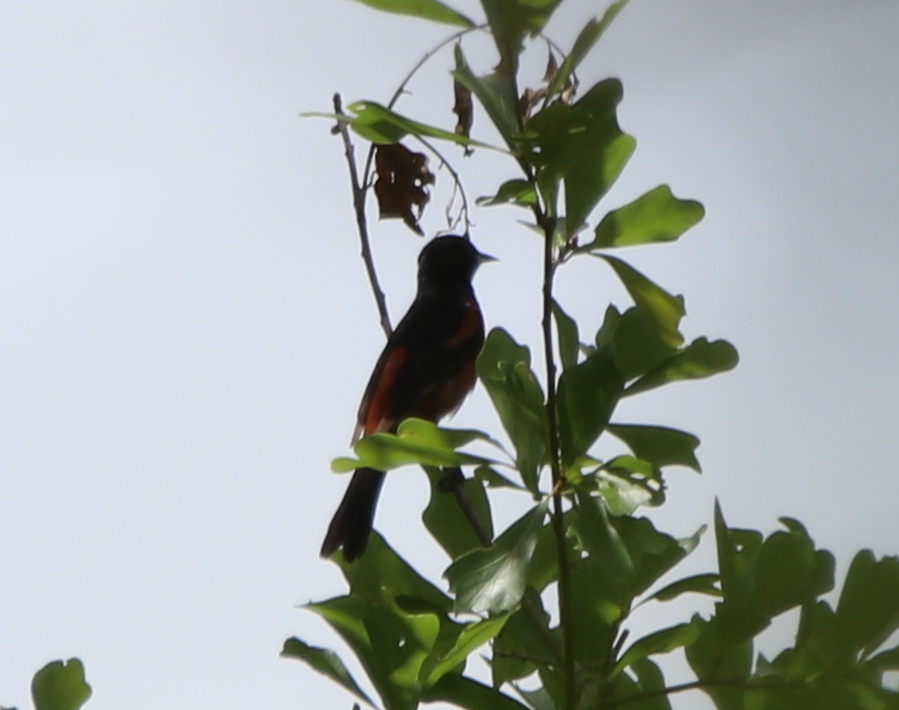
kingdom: Animalia
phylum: Chordata
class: Aves
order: Passeriformes
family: Icteridae
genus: Icterus
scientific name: Icterus spurius
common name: Orchard oriole
